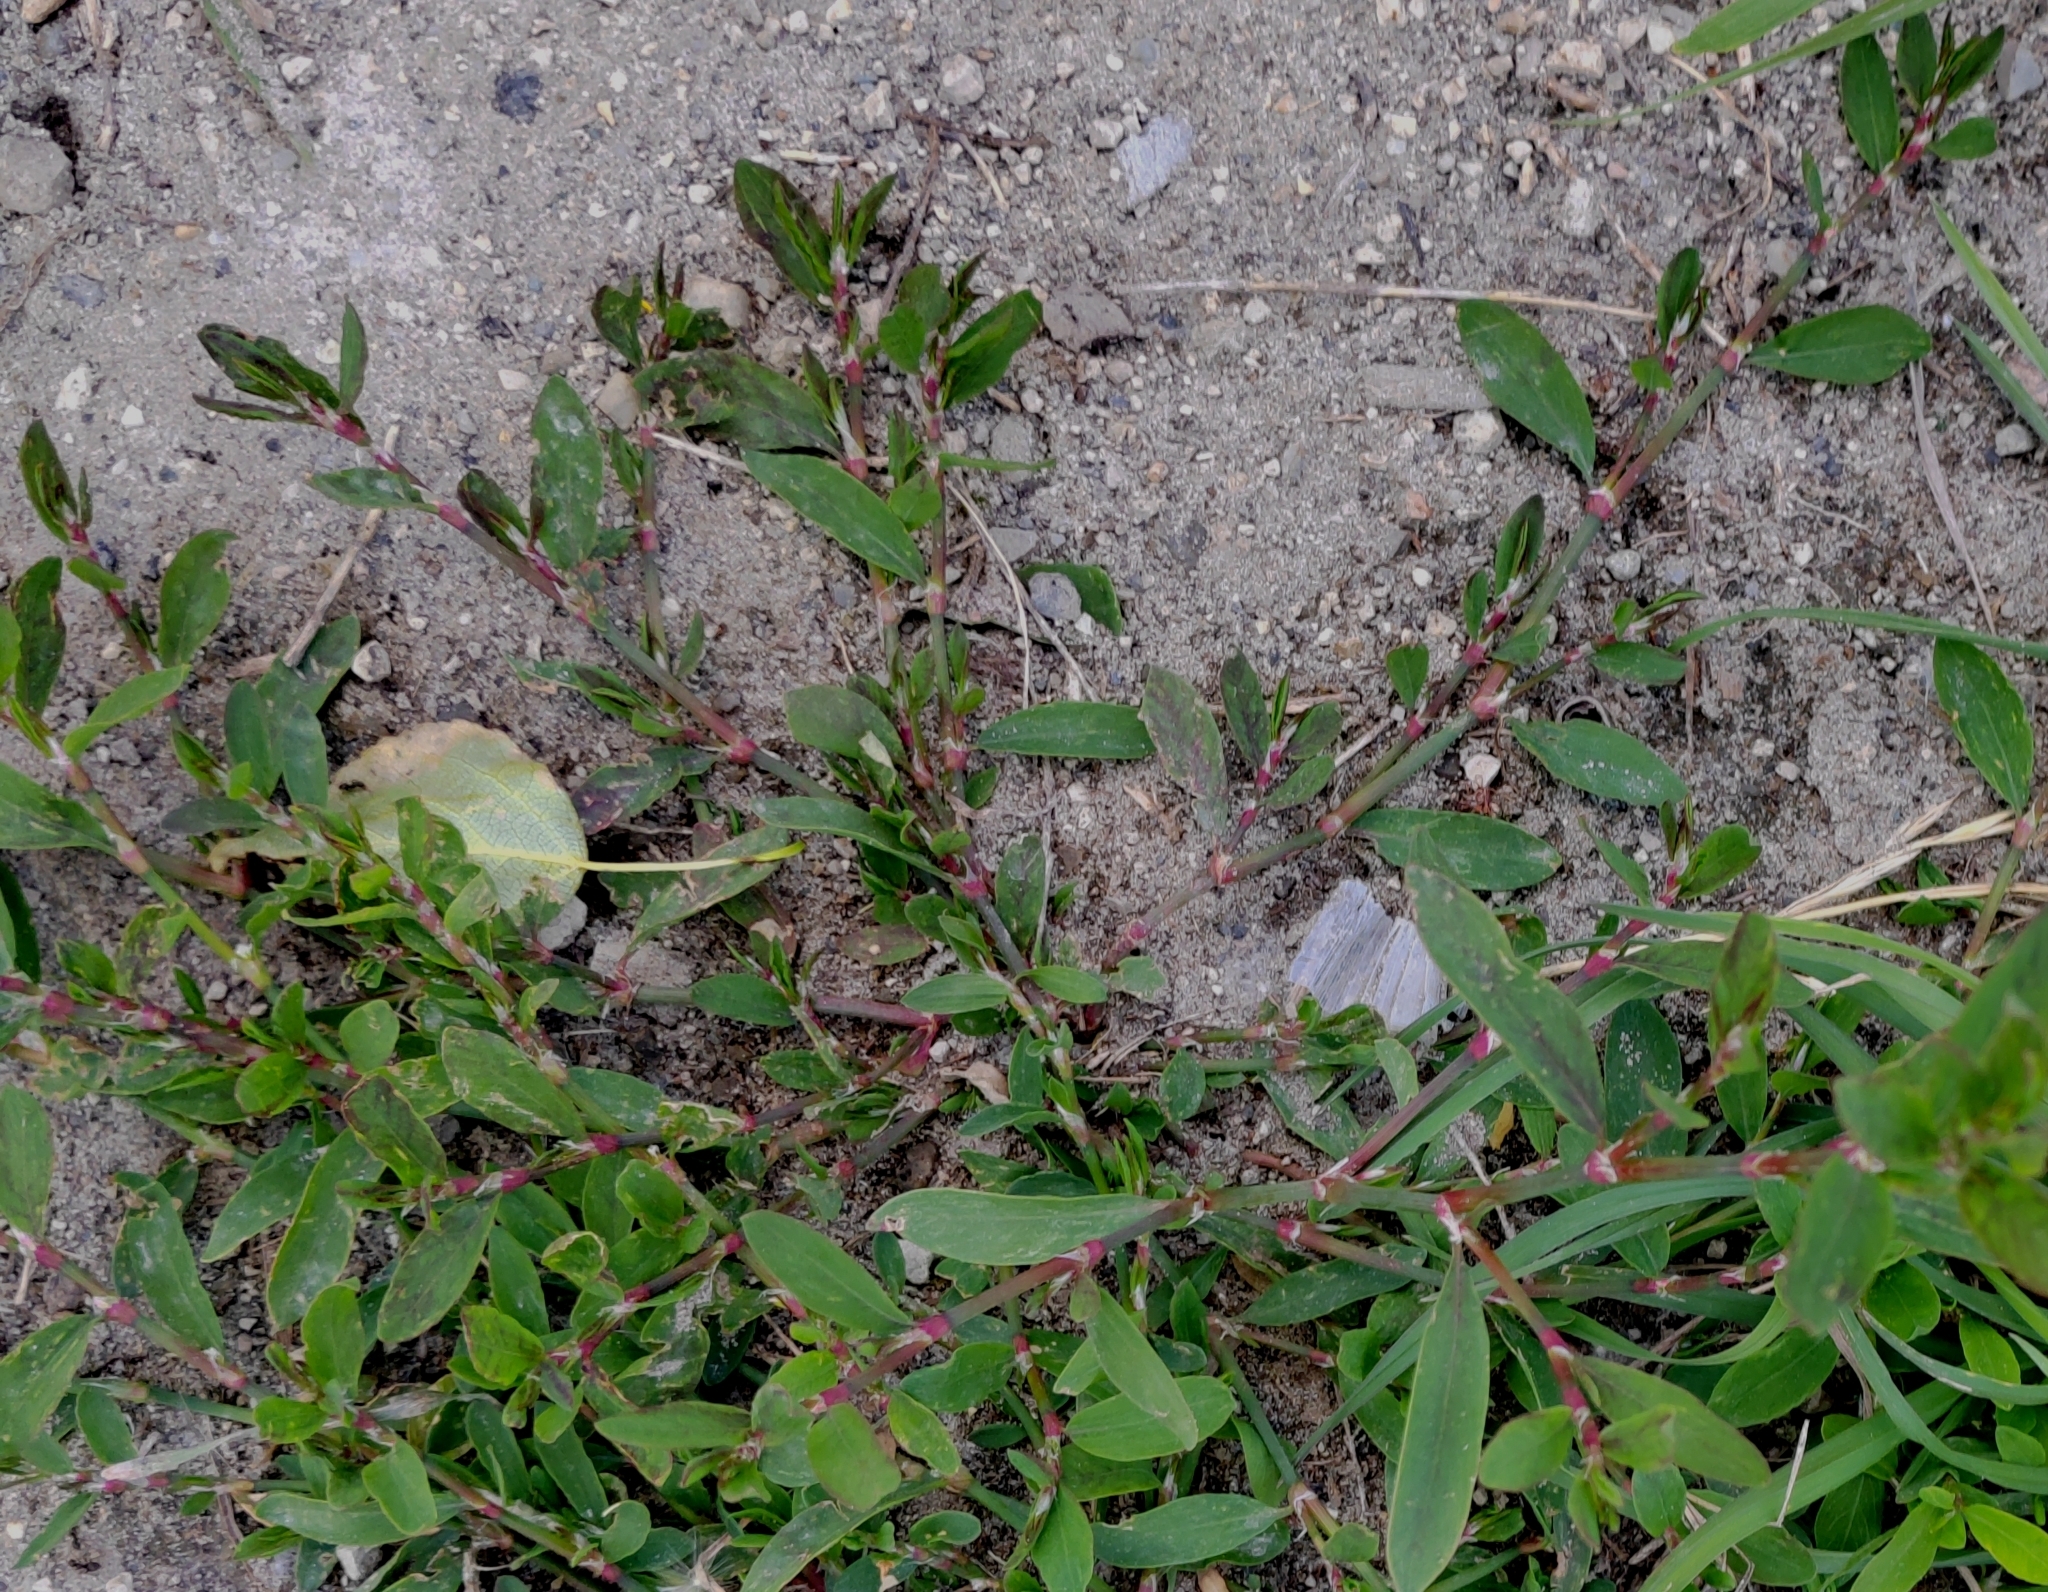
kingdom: Plantae
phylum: Tracheophyta
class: Magnoliopsida
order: Caryophyllales
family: Polygonaceae
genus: Polygonum
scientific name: Polygonum
